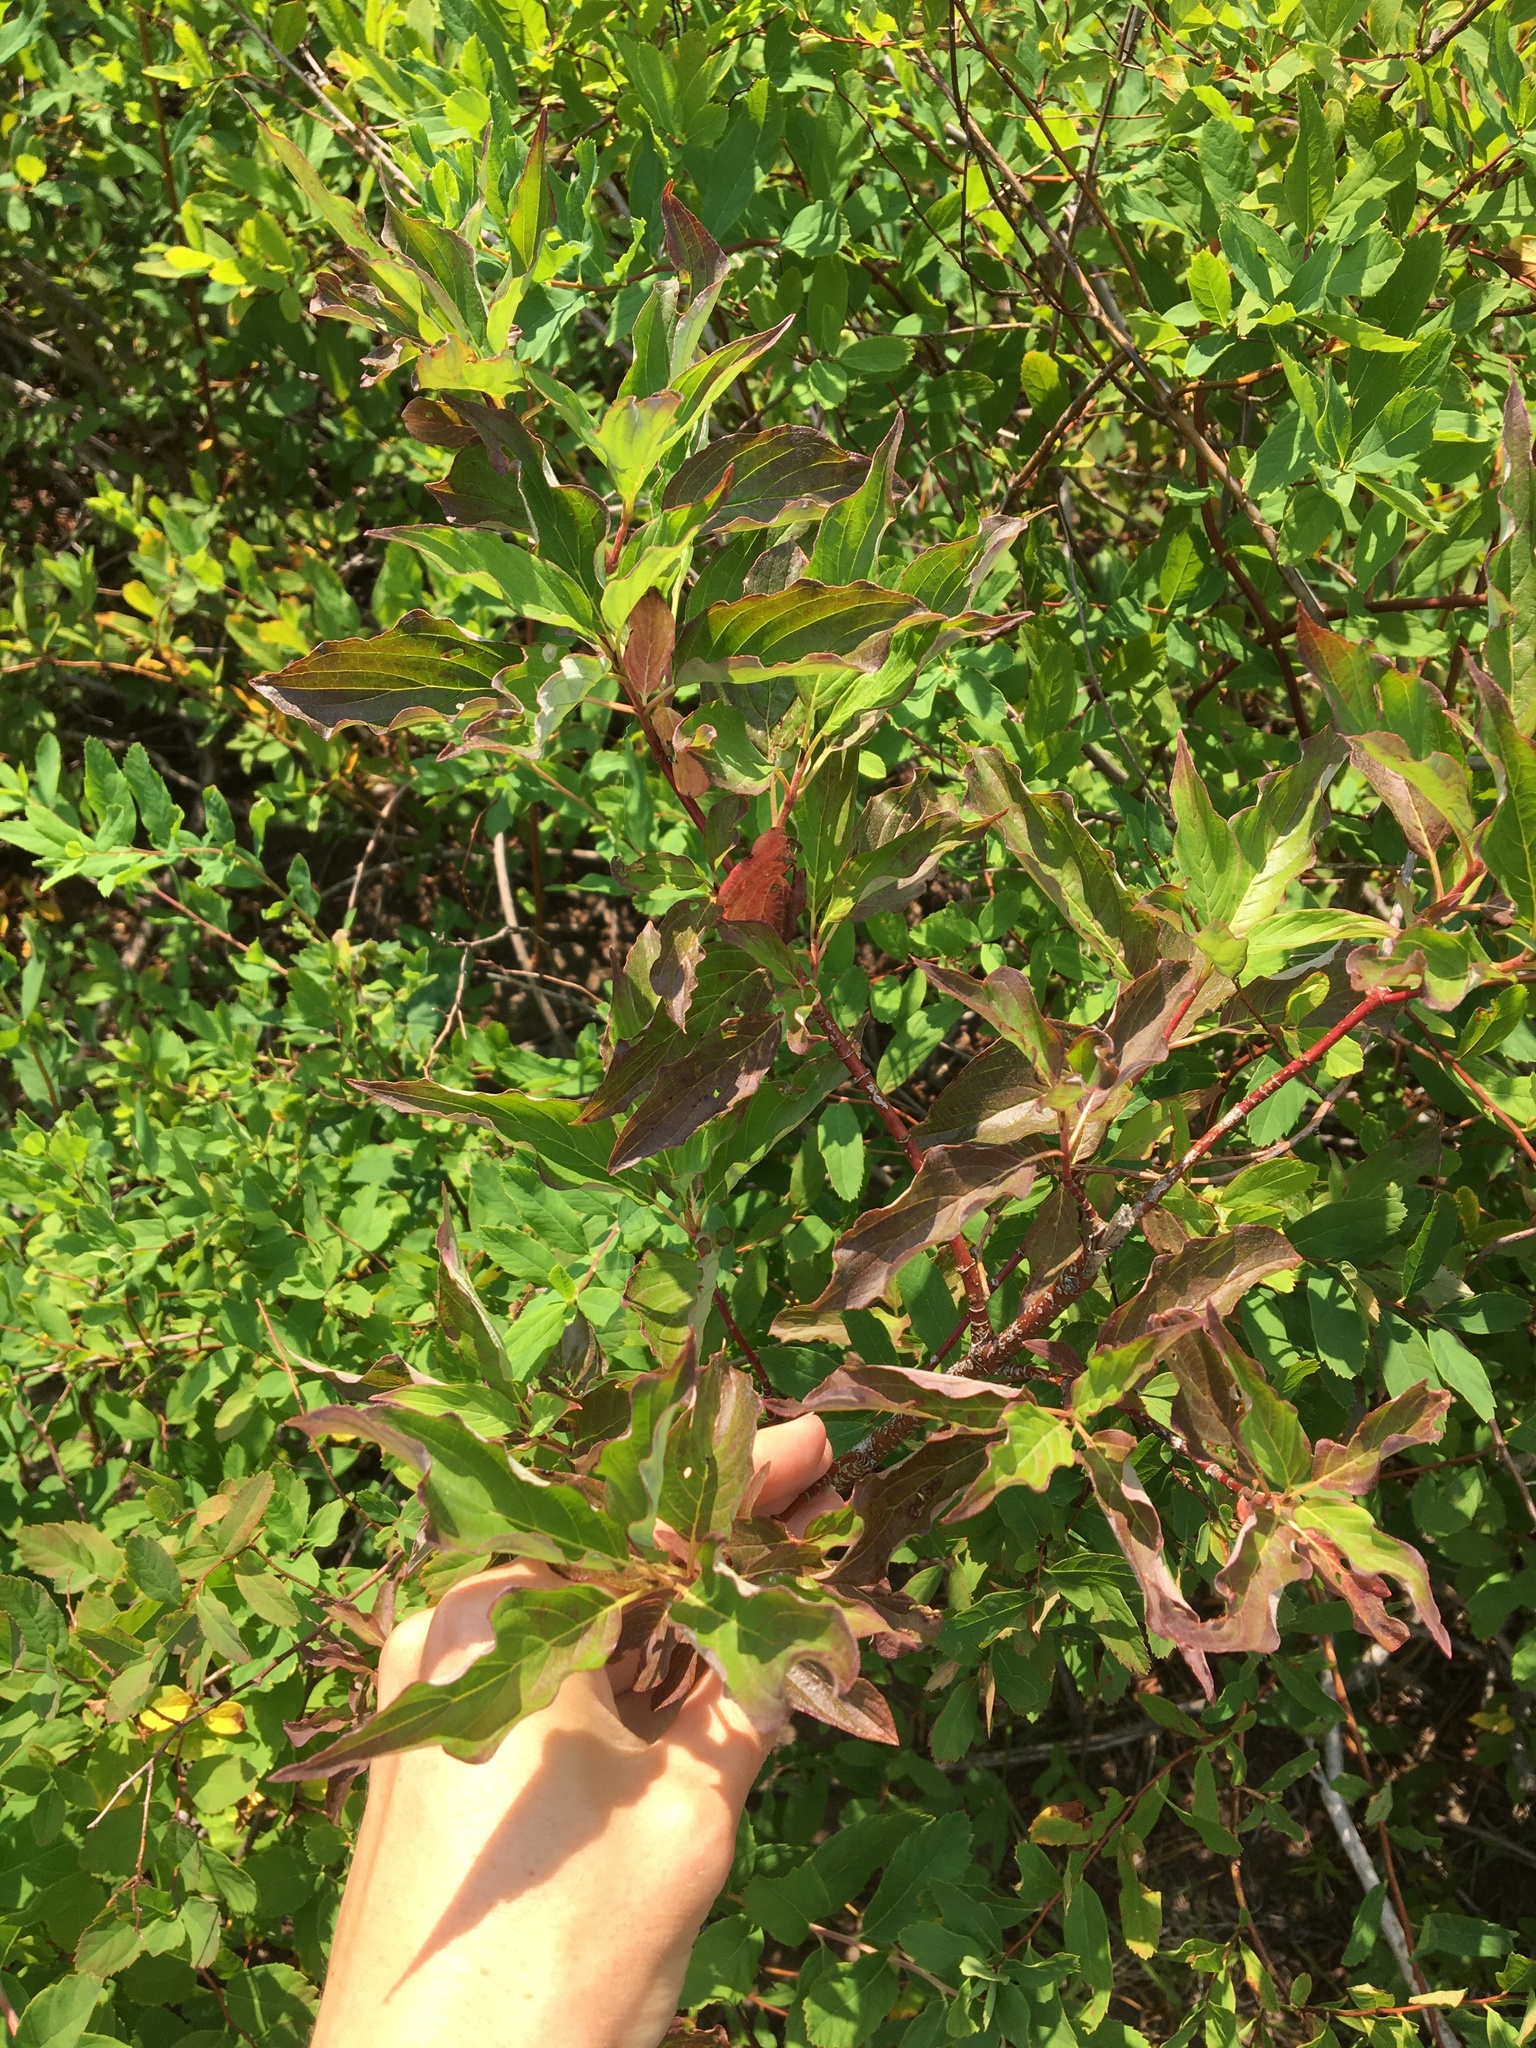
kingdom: Plantae
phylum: Tracheophyta
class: Magnoliopsida
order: Cornales
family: Cornaceae
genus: Cornus
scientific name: Cornus sericea
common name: Red-osier dogwood
